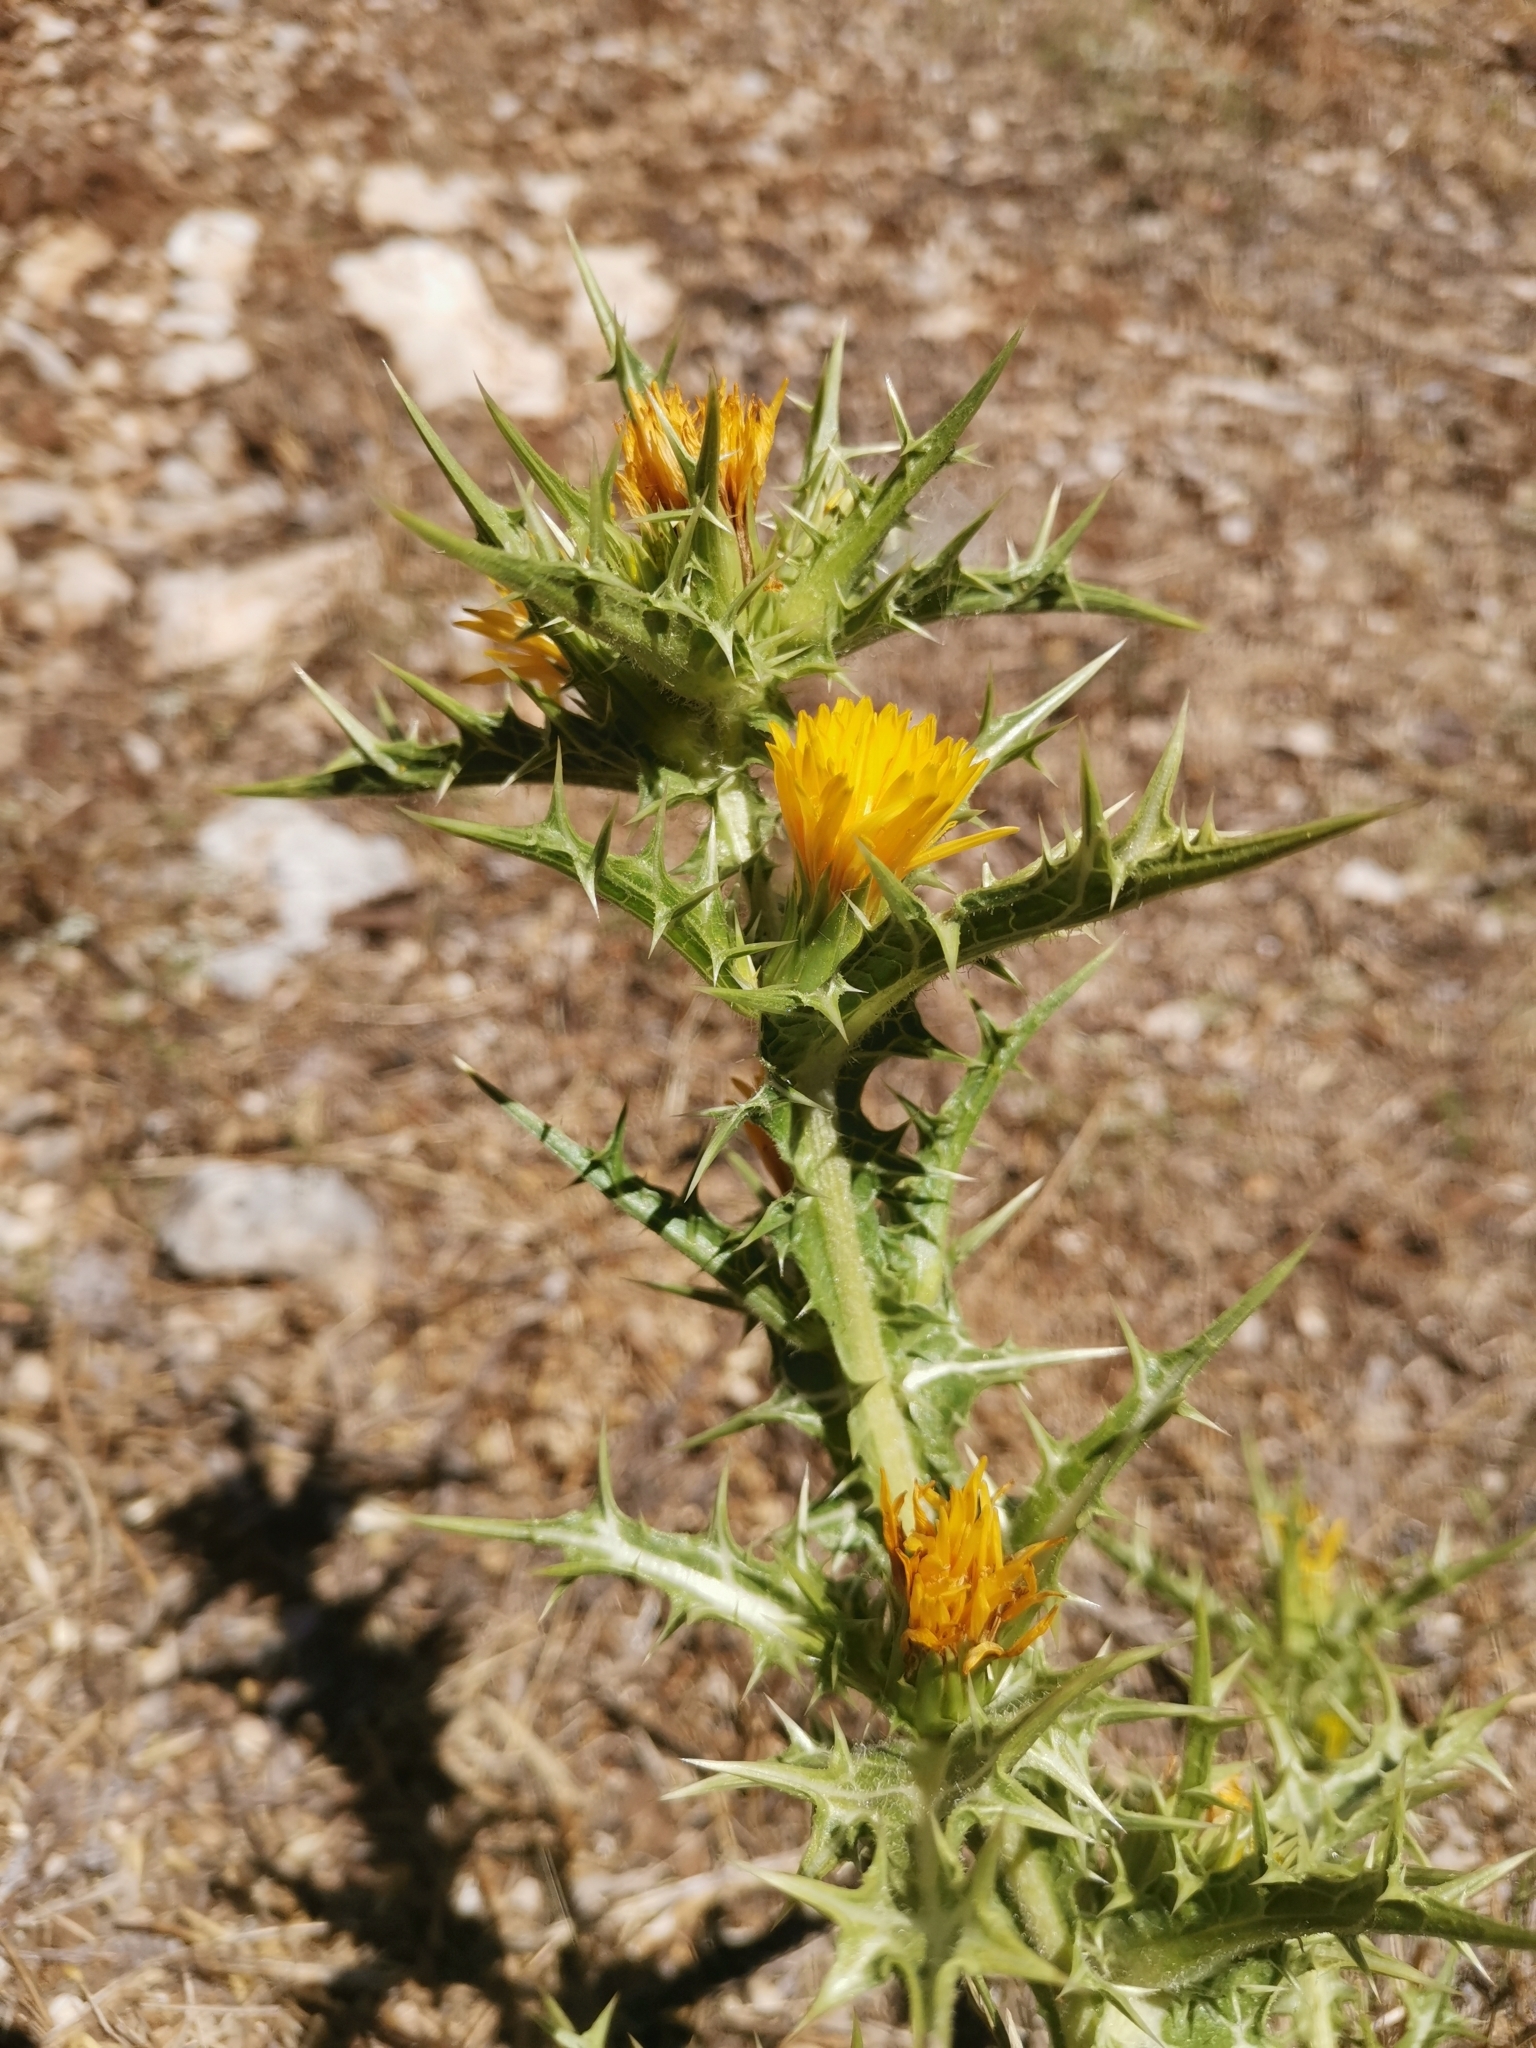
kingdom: Plantae
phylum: Tracheophyta
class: Magnoliopsida
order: Asterales
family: Asteraceae
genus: Scolymus
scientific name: Scolymus hispanicus
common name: Golden thistle
